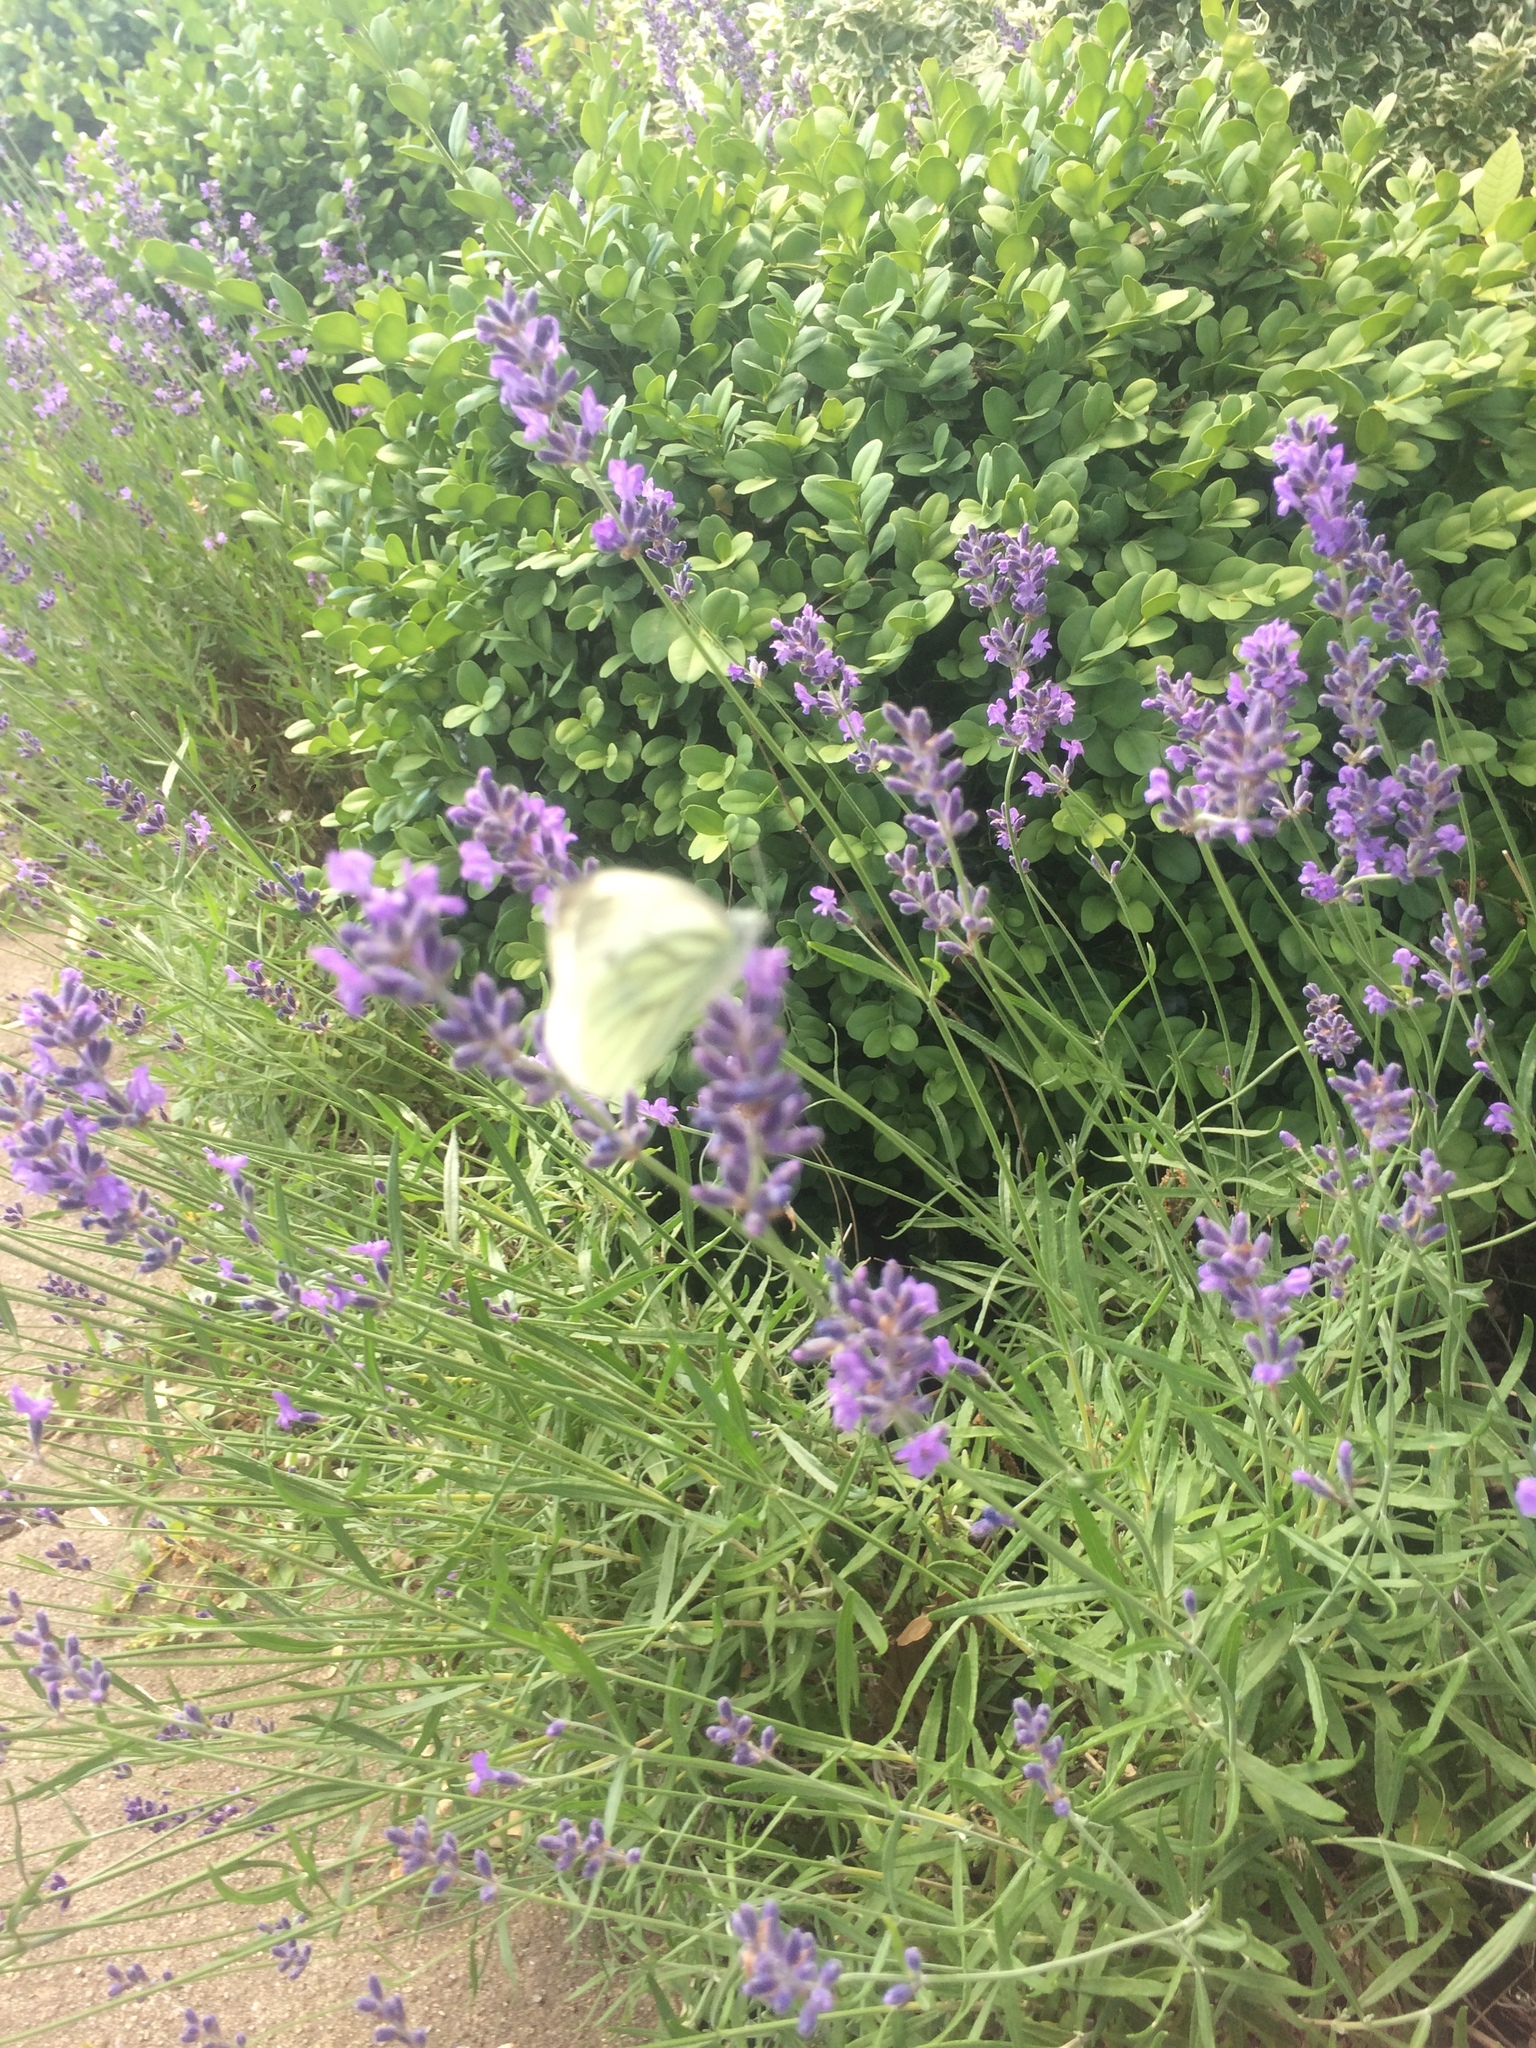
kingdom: Animalia
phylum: Arthropoda
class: Insecta
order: Lepidoptera
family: Pieridae
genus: Pieris
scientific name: Pieris napi
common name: Green-veined white
